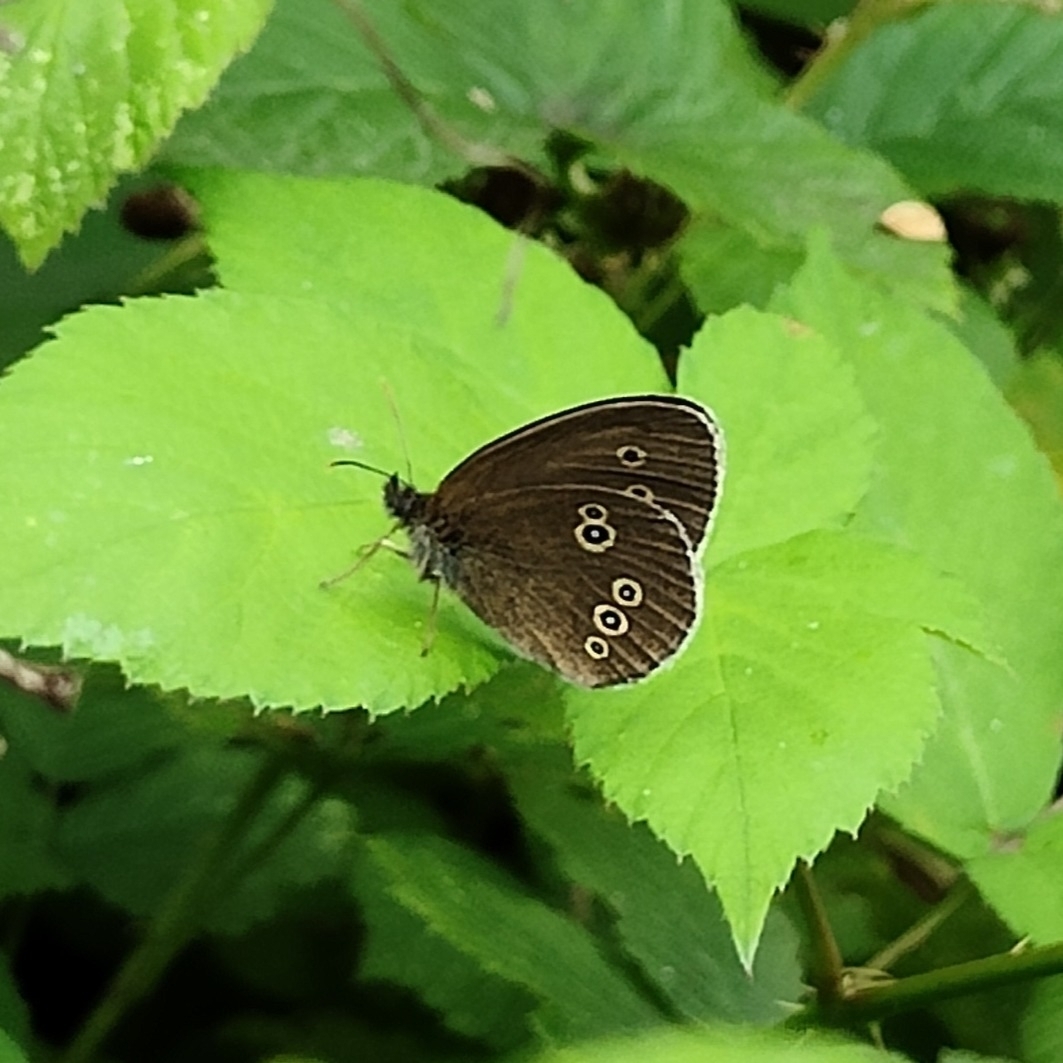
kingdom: Animalia
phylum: Arthropoda
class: Insecta
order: Lepidoptera
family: Nymphalidae
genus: Aphantopus
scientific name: Aphantopus hyperantus
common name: Ringlet
